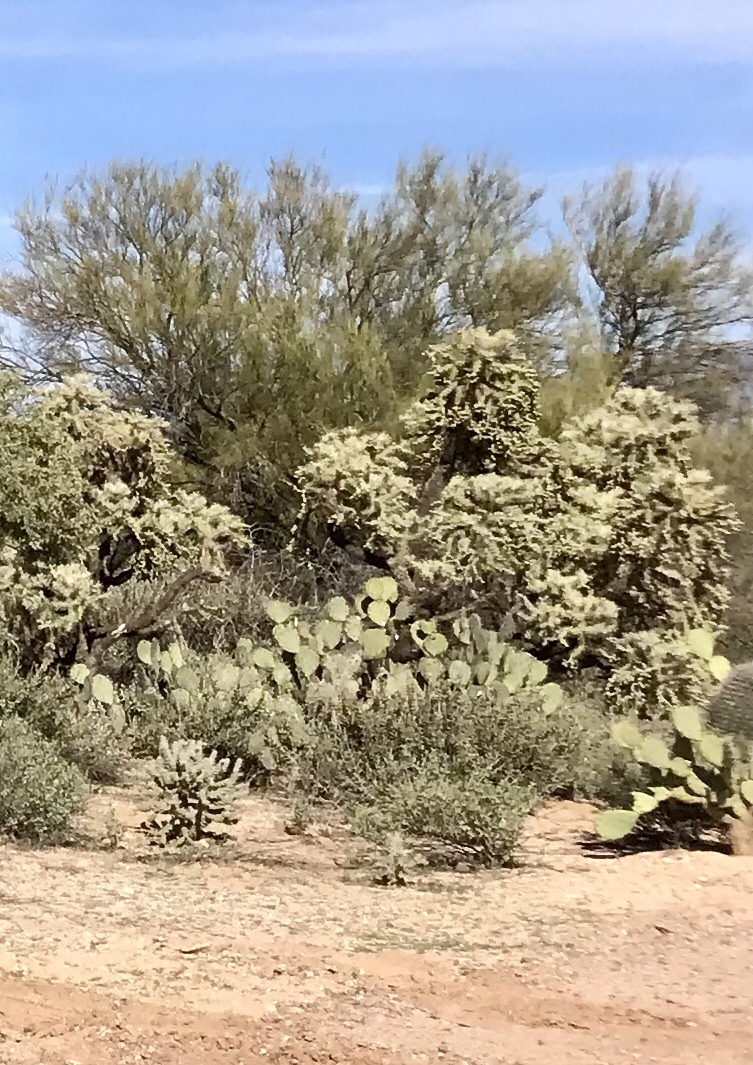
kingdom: Plantae
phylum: Tracheophyta
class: Magnoliopsida
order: Caryophyllales
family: Cactaceae
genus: Cylindropuntia
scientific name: Cylindropuntia fulgida
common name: Jumping cholla
